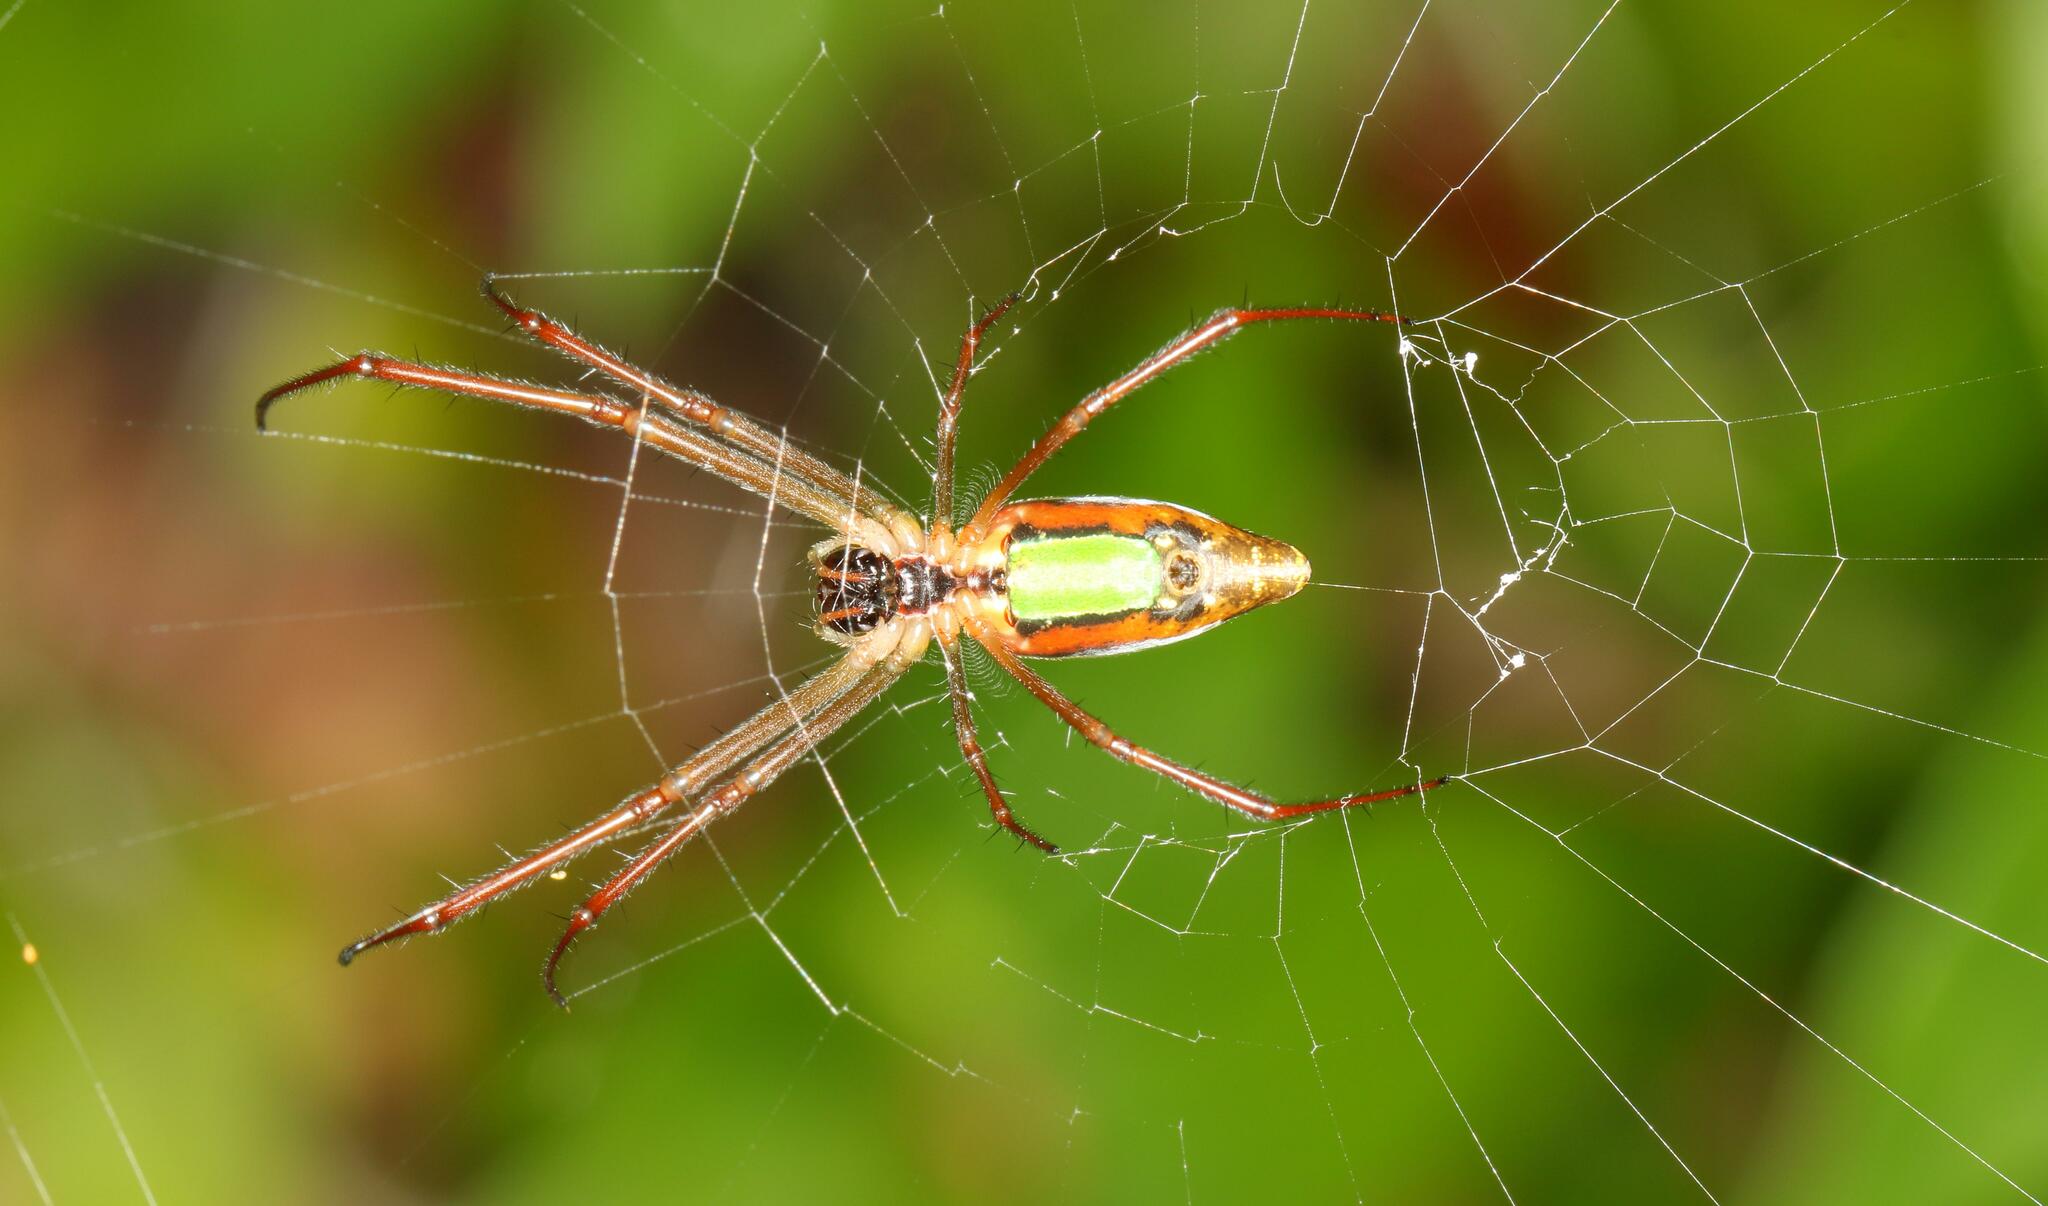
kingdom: Animalia
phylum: Arthropoda
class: Arachnida
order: Araneae
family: Tetragnathidae
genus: Leucauge
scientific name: Leucauge levanderi
